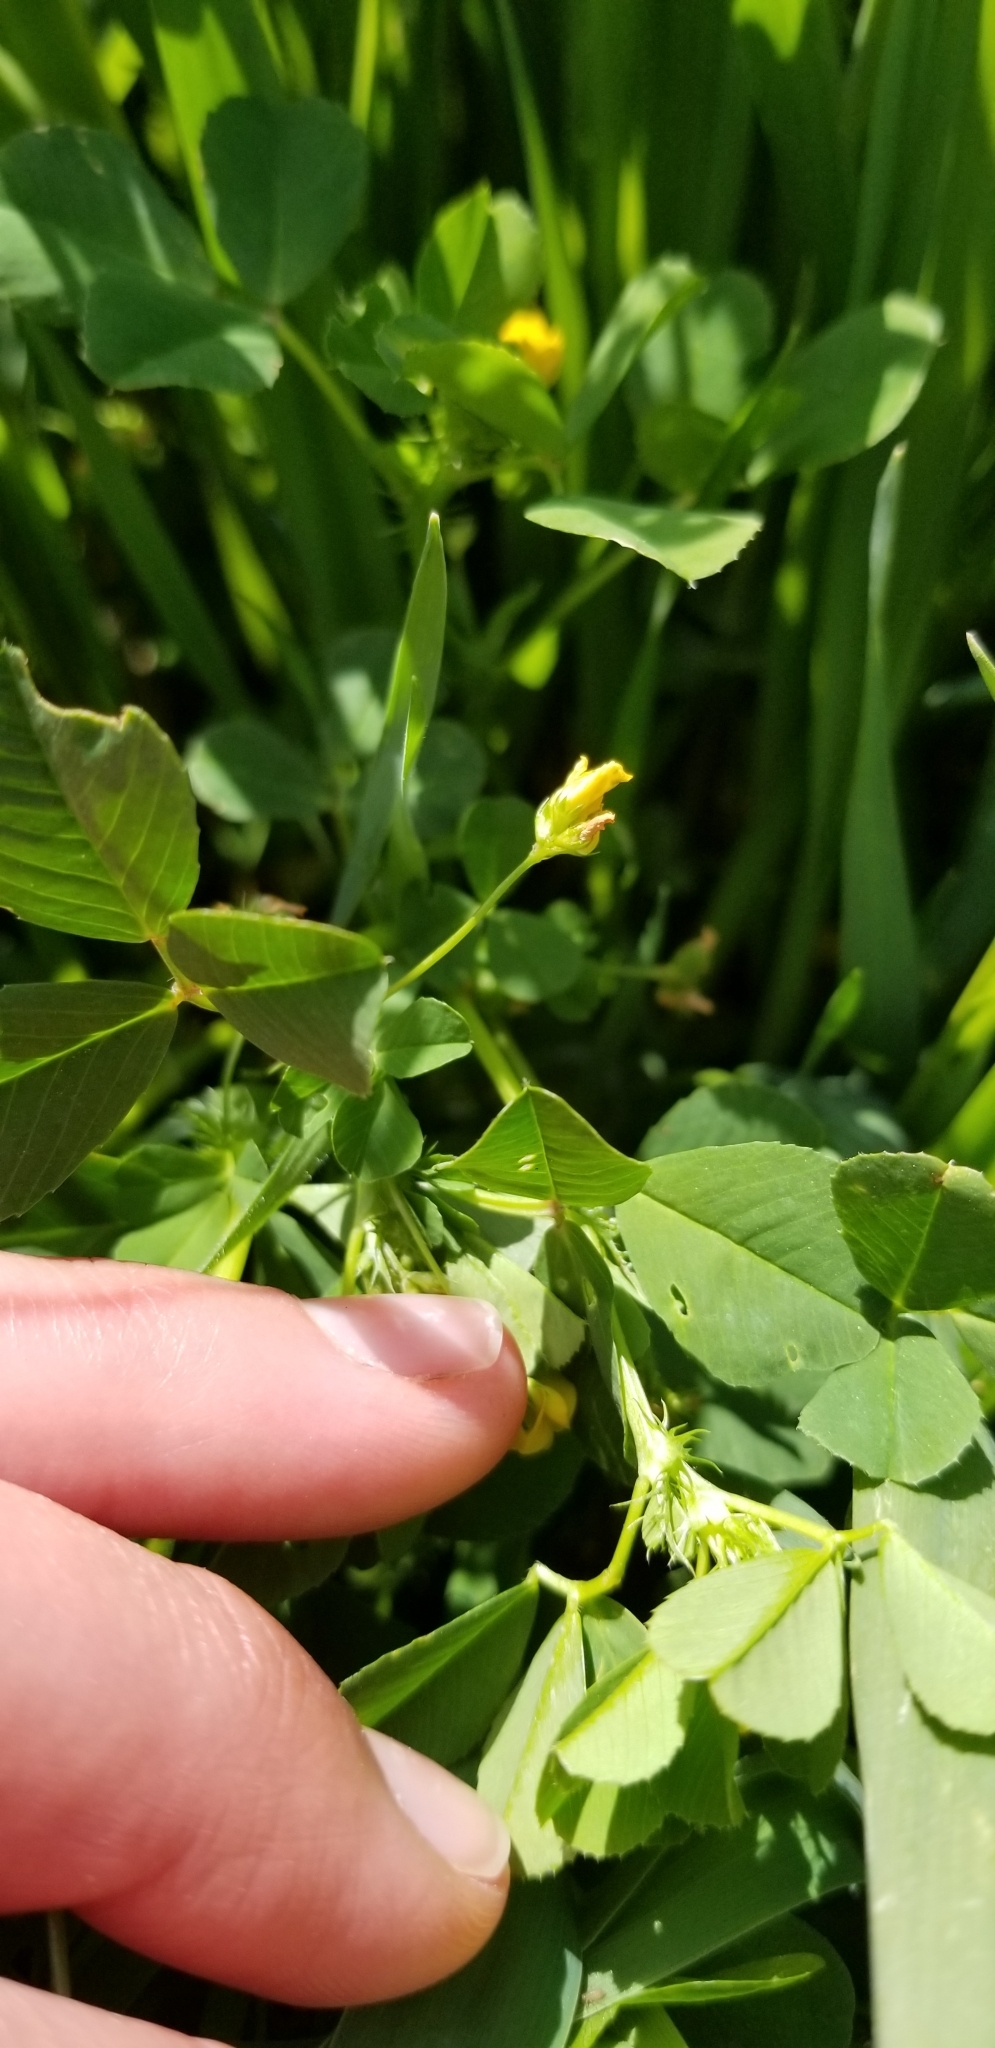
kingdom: Plantae
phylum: Tracheophyta
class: Magnoliopsida
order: Fabales
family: Fabaceae
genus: Medicago
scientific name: Medicago polymorpha
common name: Burclover
